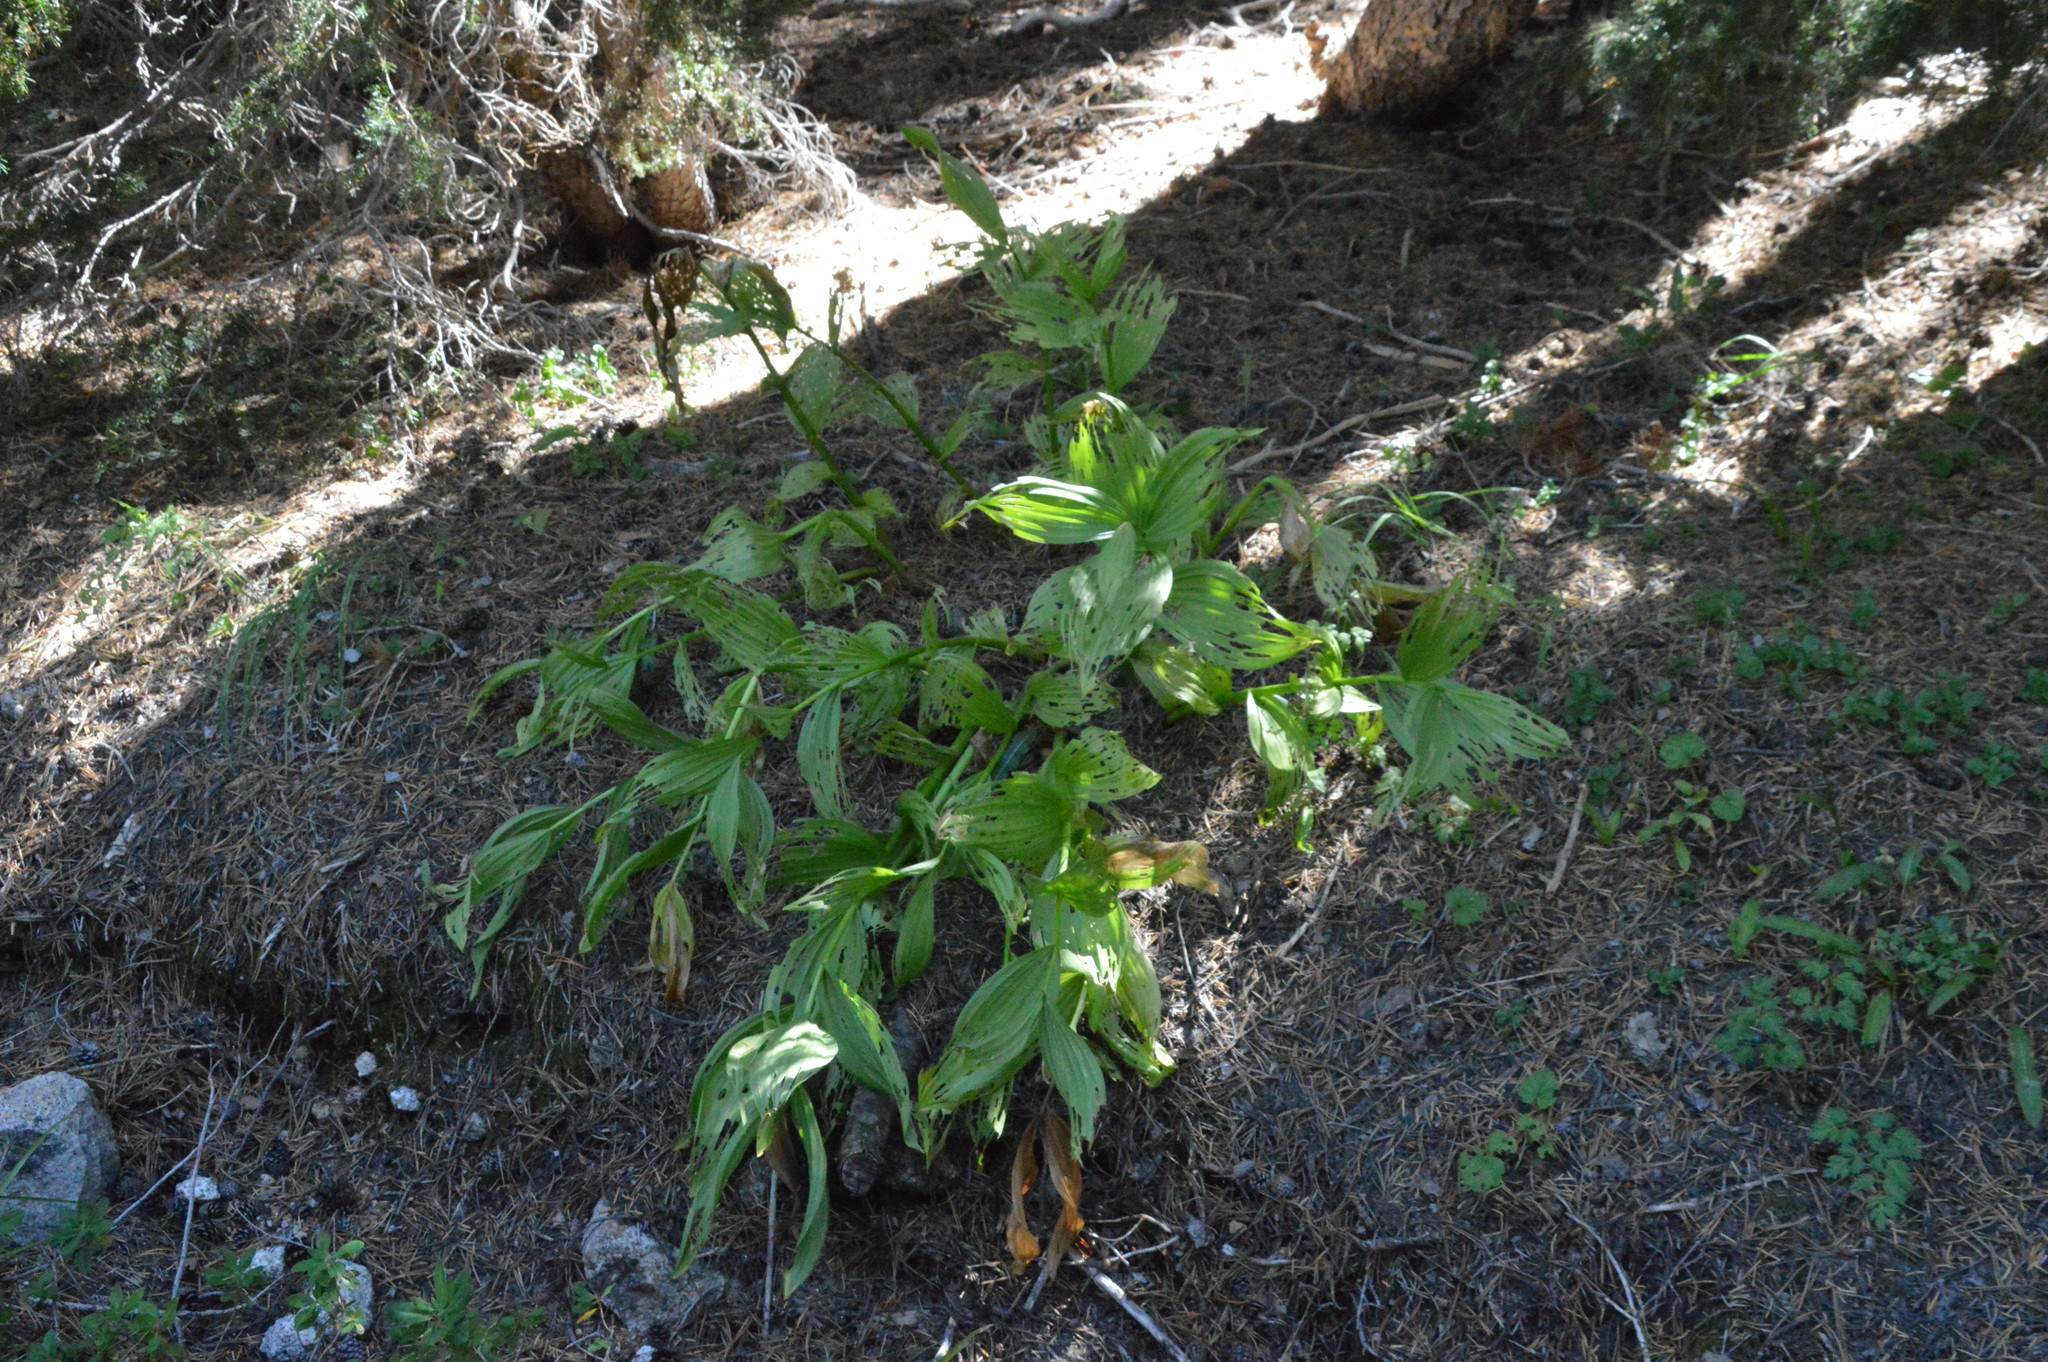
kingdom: Plantae
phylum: Tracheophyta
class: Liliopsida
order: Liliales
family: Melanthiaceae
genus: Veratrum
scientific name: Veratrum californicum
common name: California veratrum
